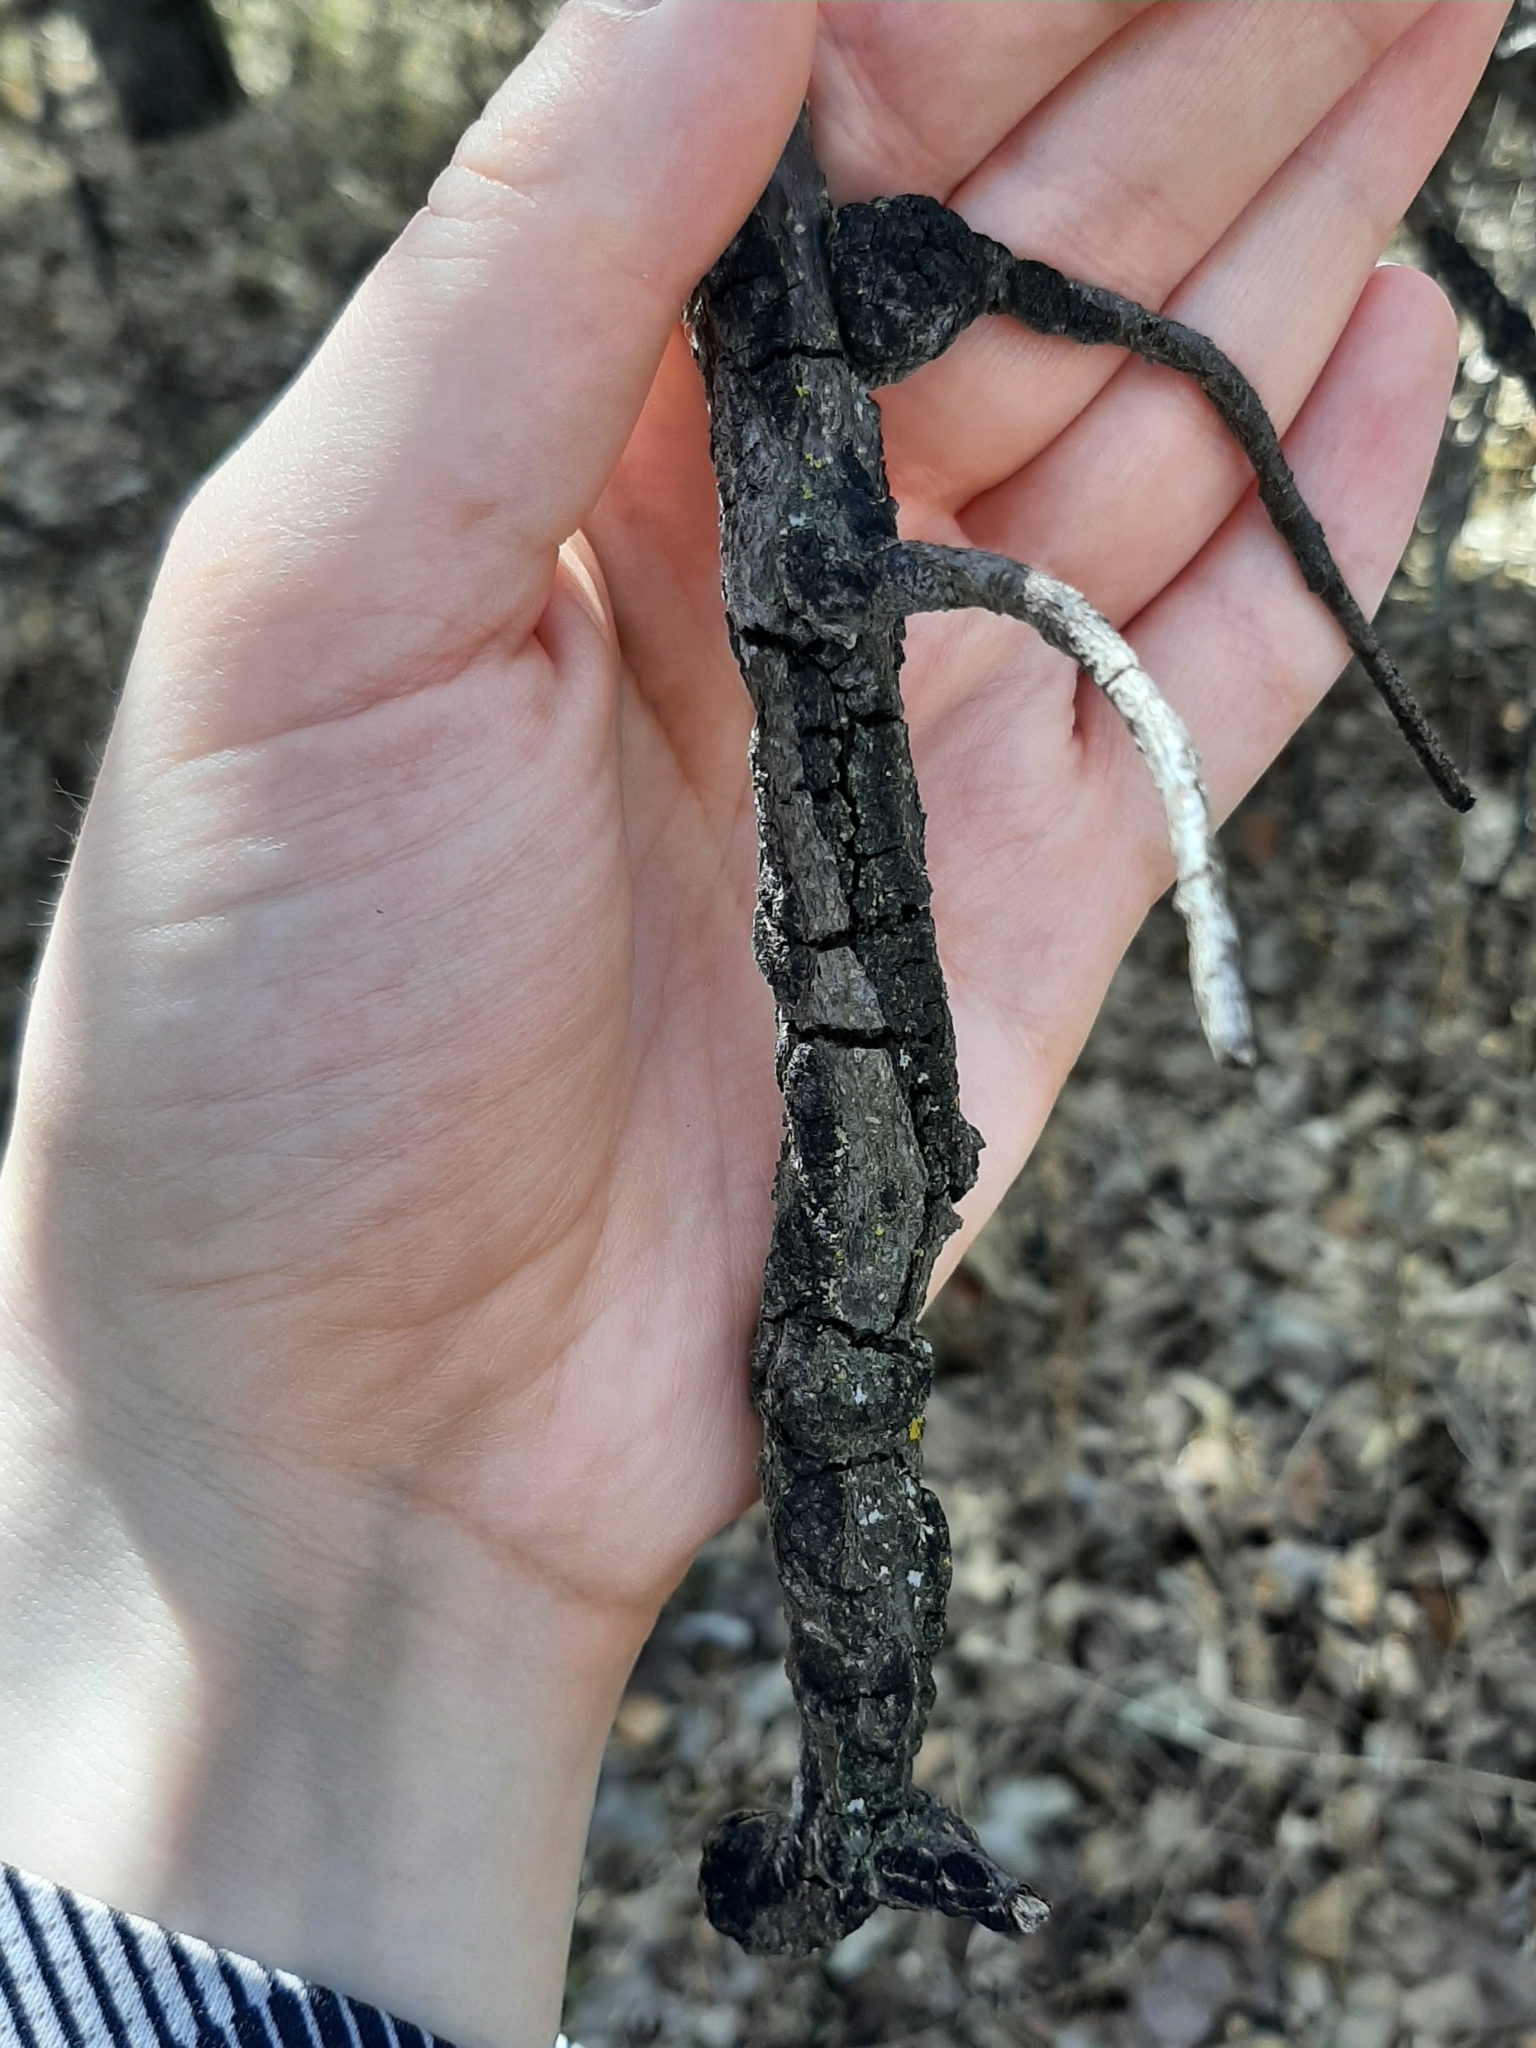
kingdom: Fungi
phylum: Ascomycota
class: Dothideomycetes
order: Venturiales
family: Venturiaceae
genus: Apiosporina
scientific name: Apiosporina morbosa
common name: Black knot
